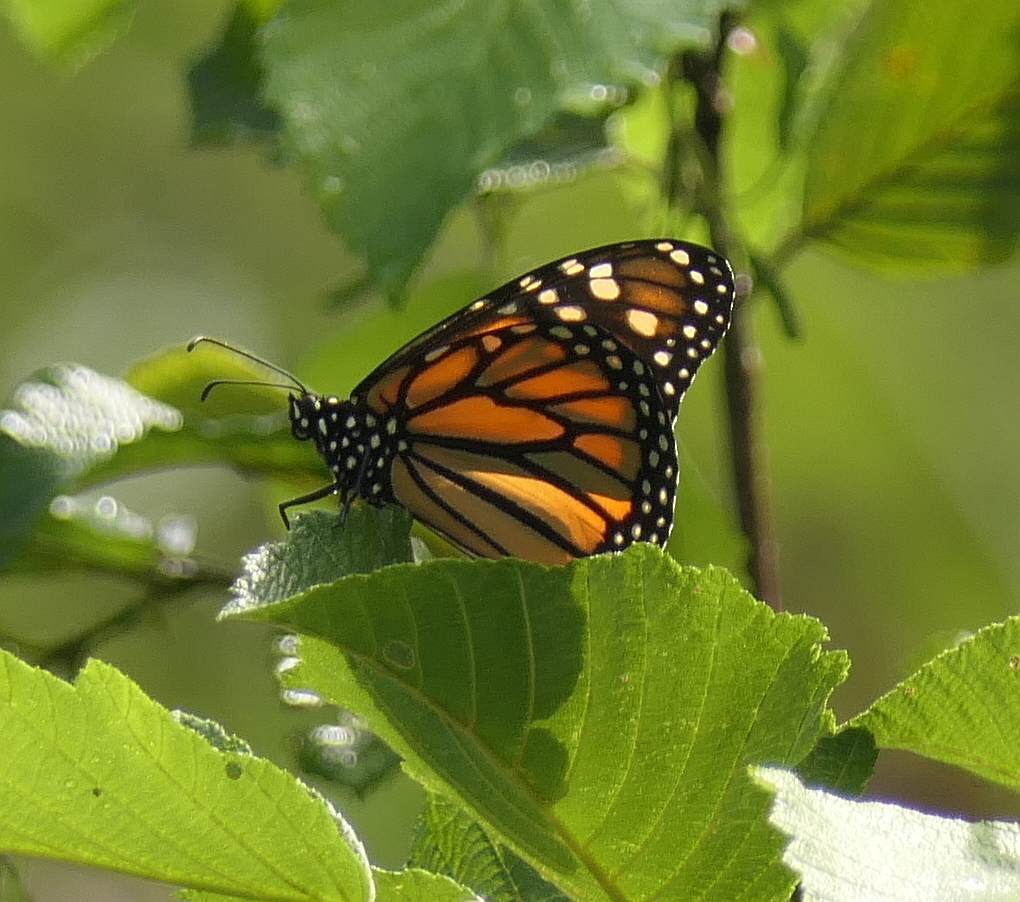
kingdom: Animalia
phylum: Arthropoda
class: Insecta
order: Lepidoptera
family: Nymphalidae
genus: Danaus
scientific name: Danaus plexippus
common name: Monarch
